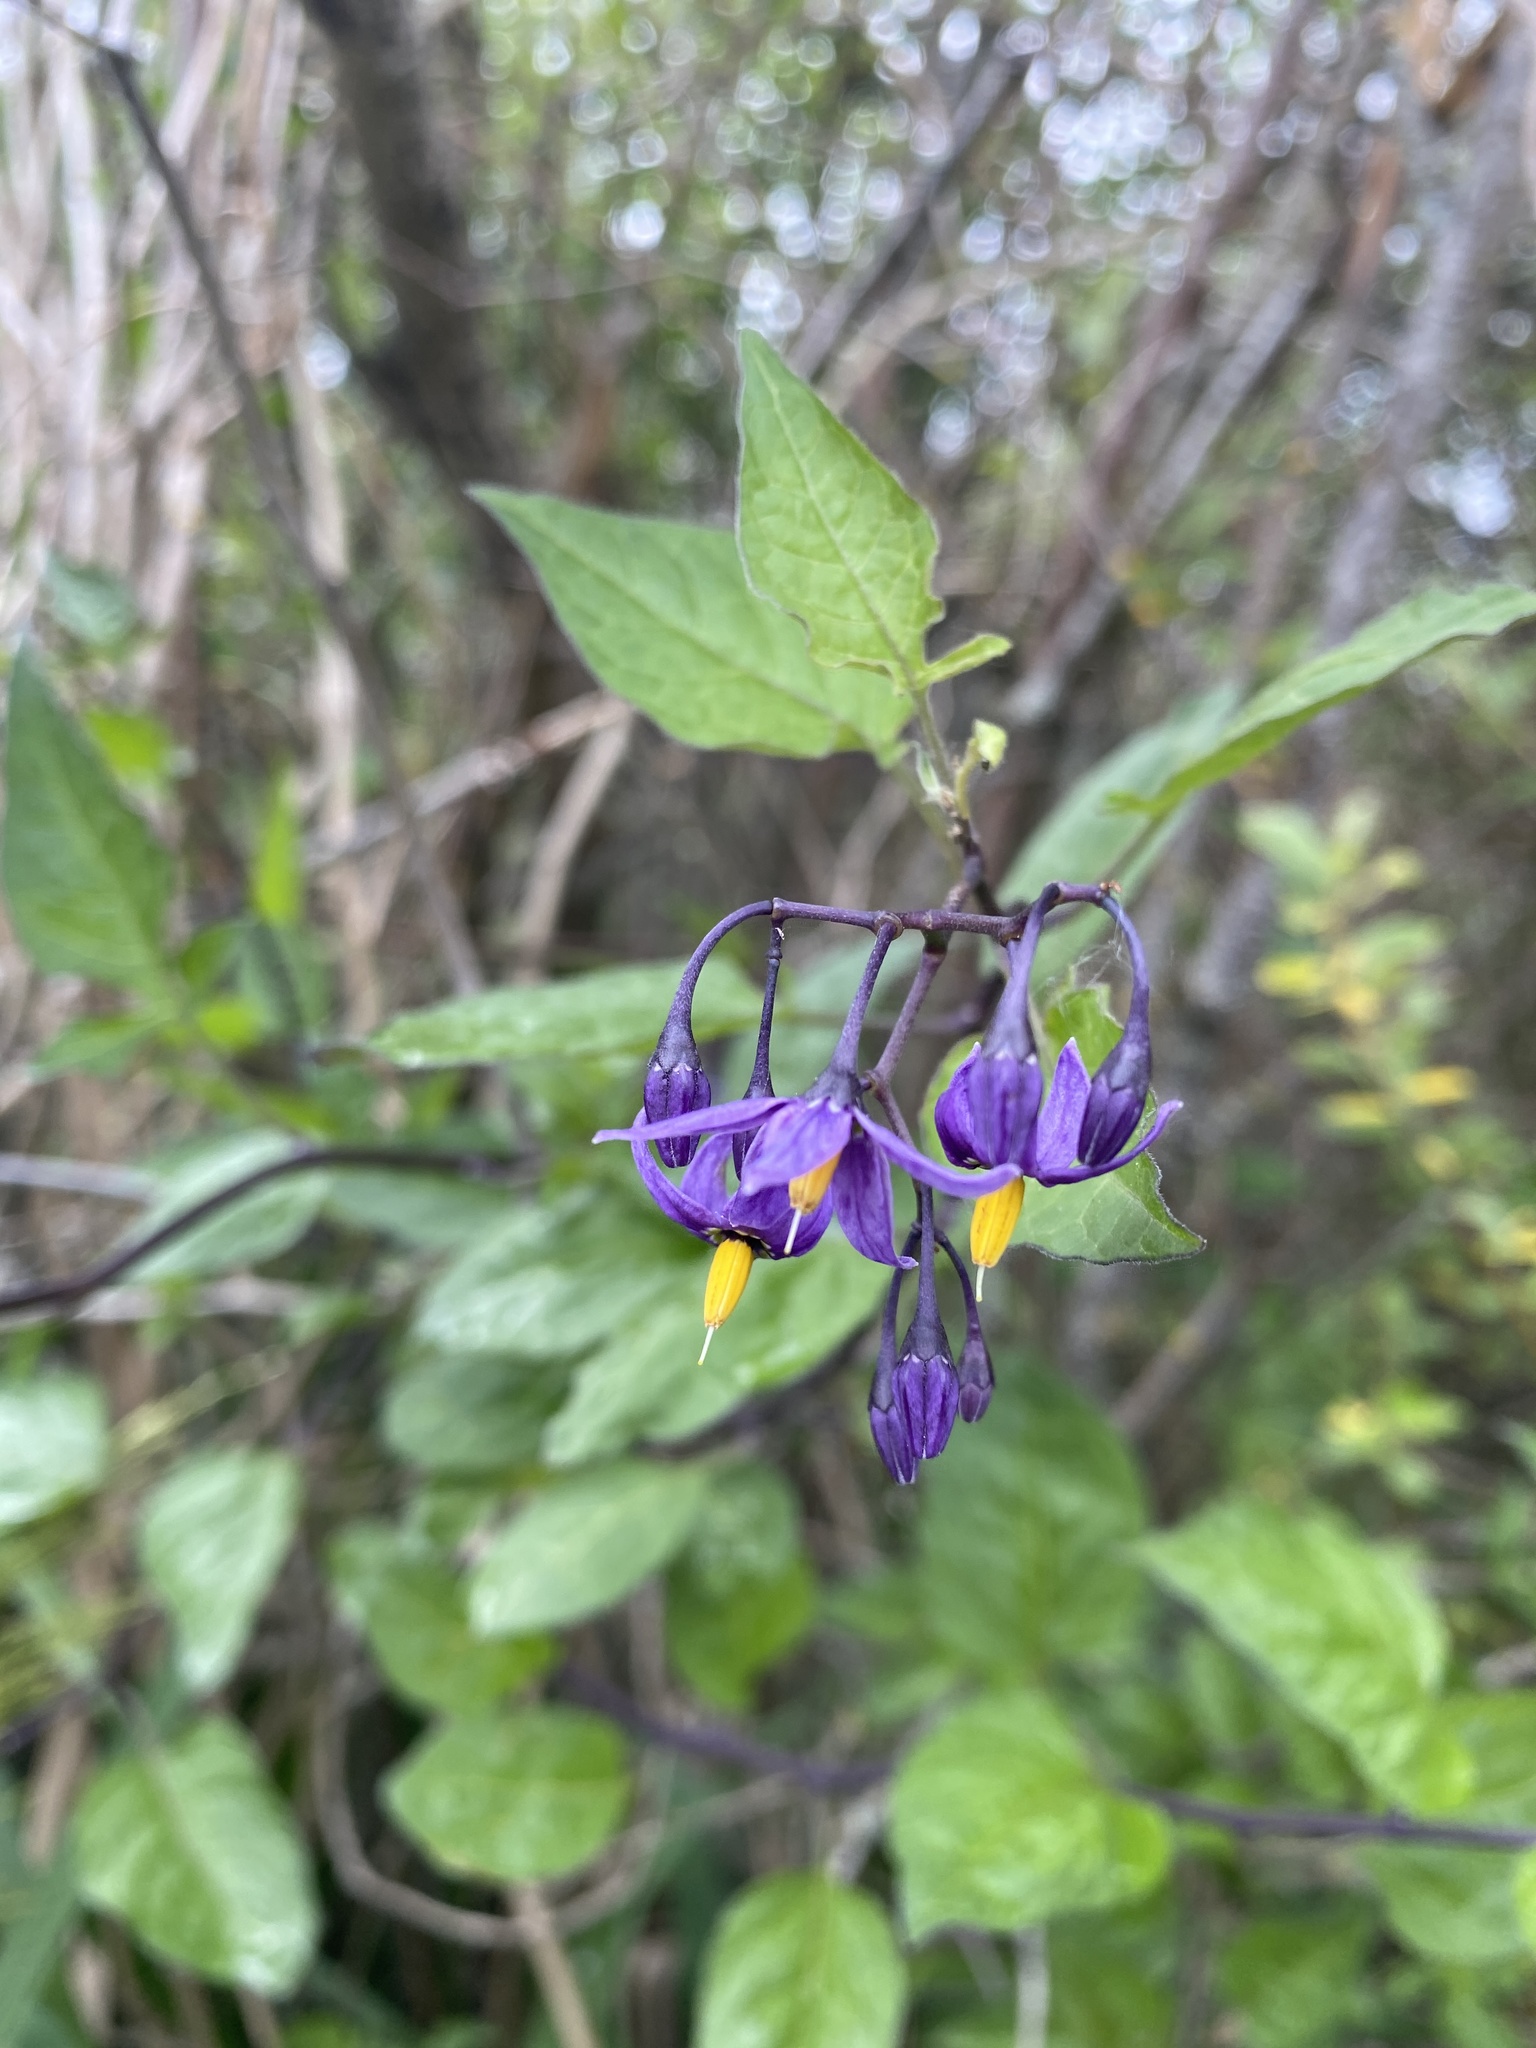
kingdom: Plantae
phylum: Tracheophyta
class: Magnoliopsida
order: Solanales
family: Solanaceae
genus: Solanum
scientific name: Solanum dulcamara
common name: Climbing nightshade
